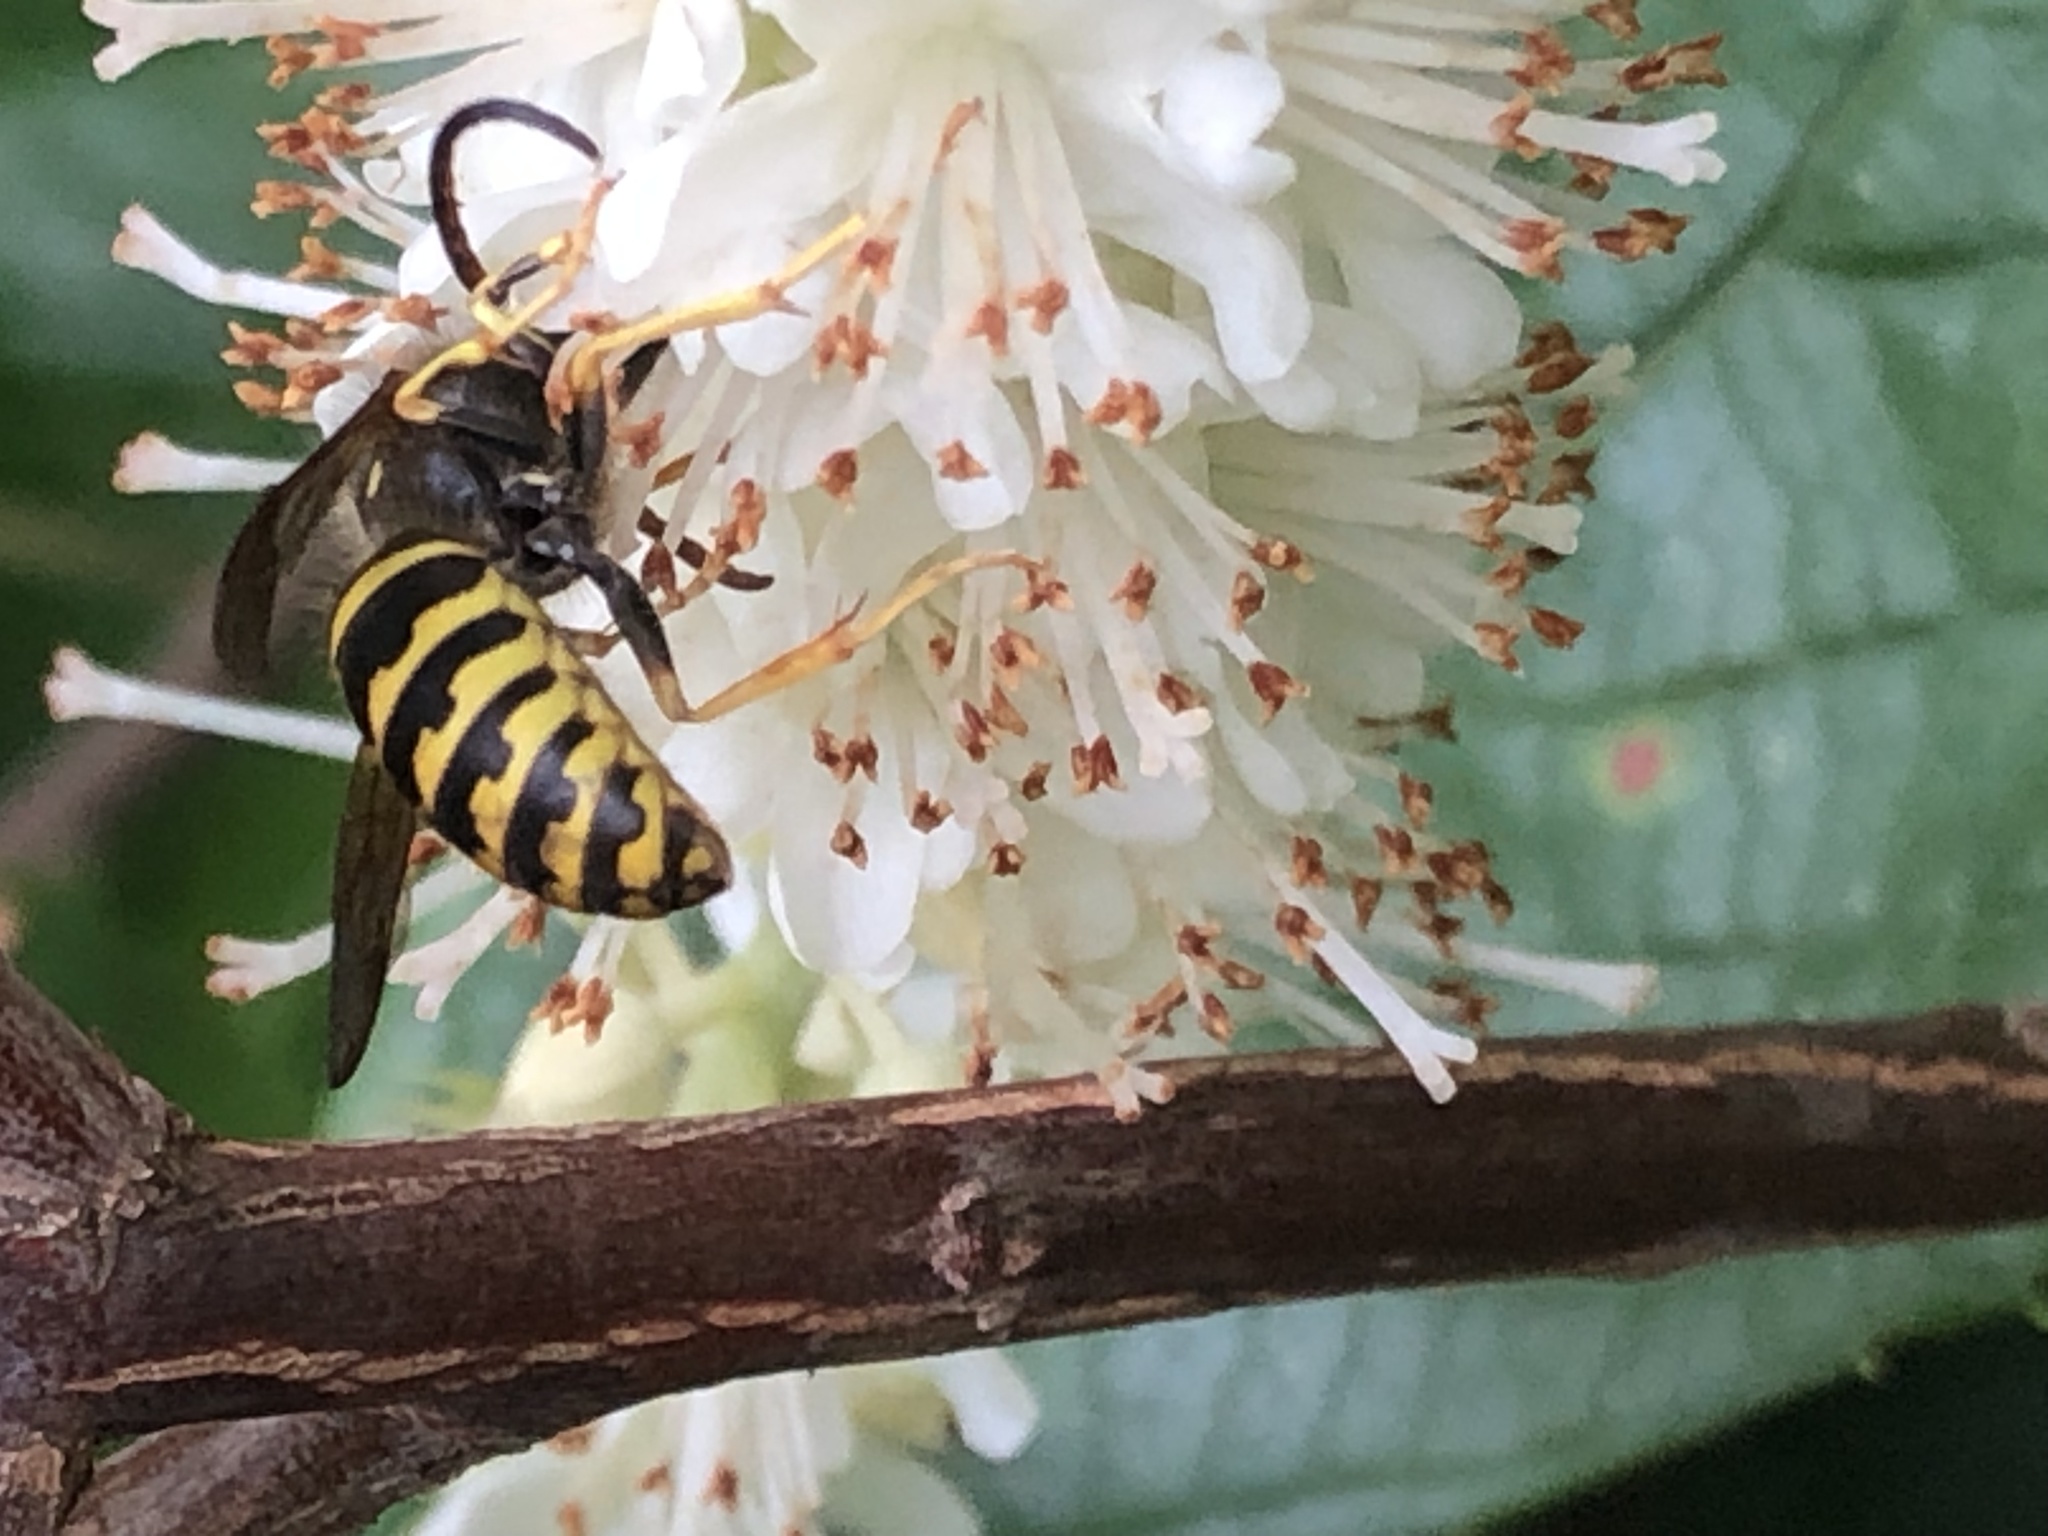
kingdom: Animalia
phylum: Arthropoda
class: Insecta
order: Hymenoptera
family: Vespidae
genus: Dolichovespula
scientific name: Dolichovespula arenaria
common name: Aerial yellowjacket
